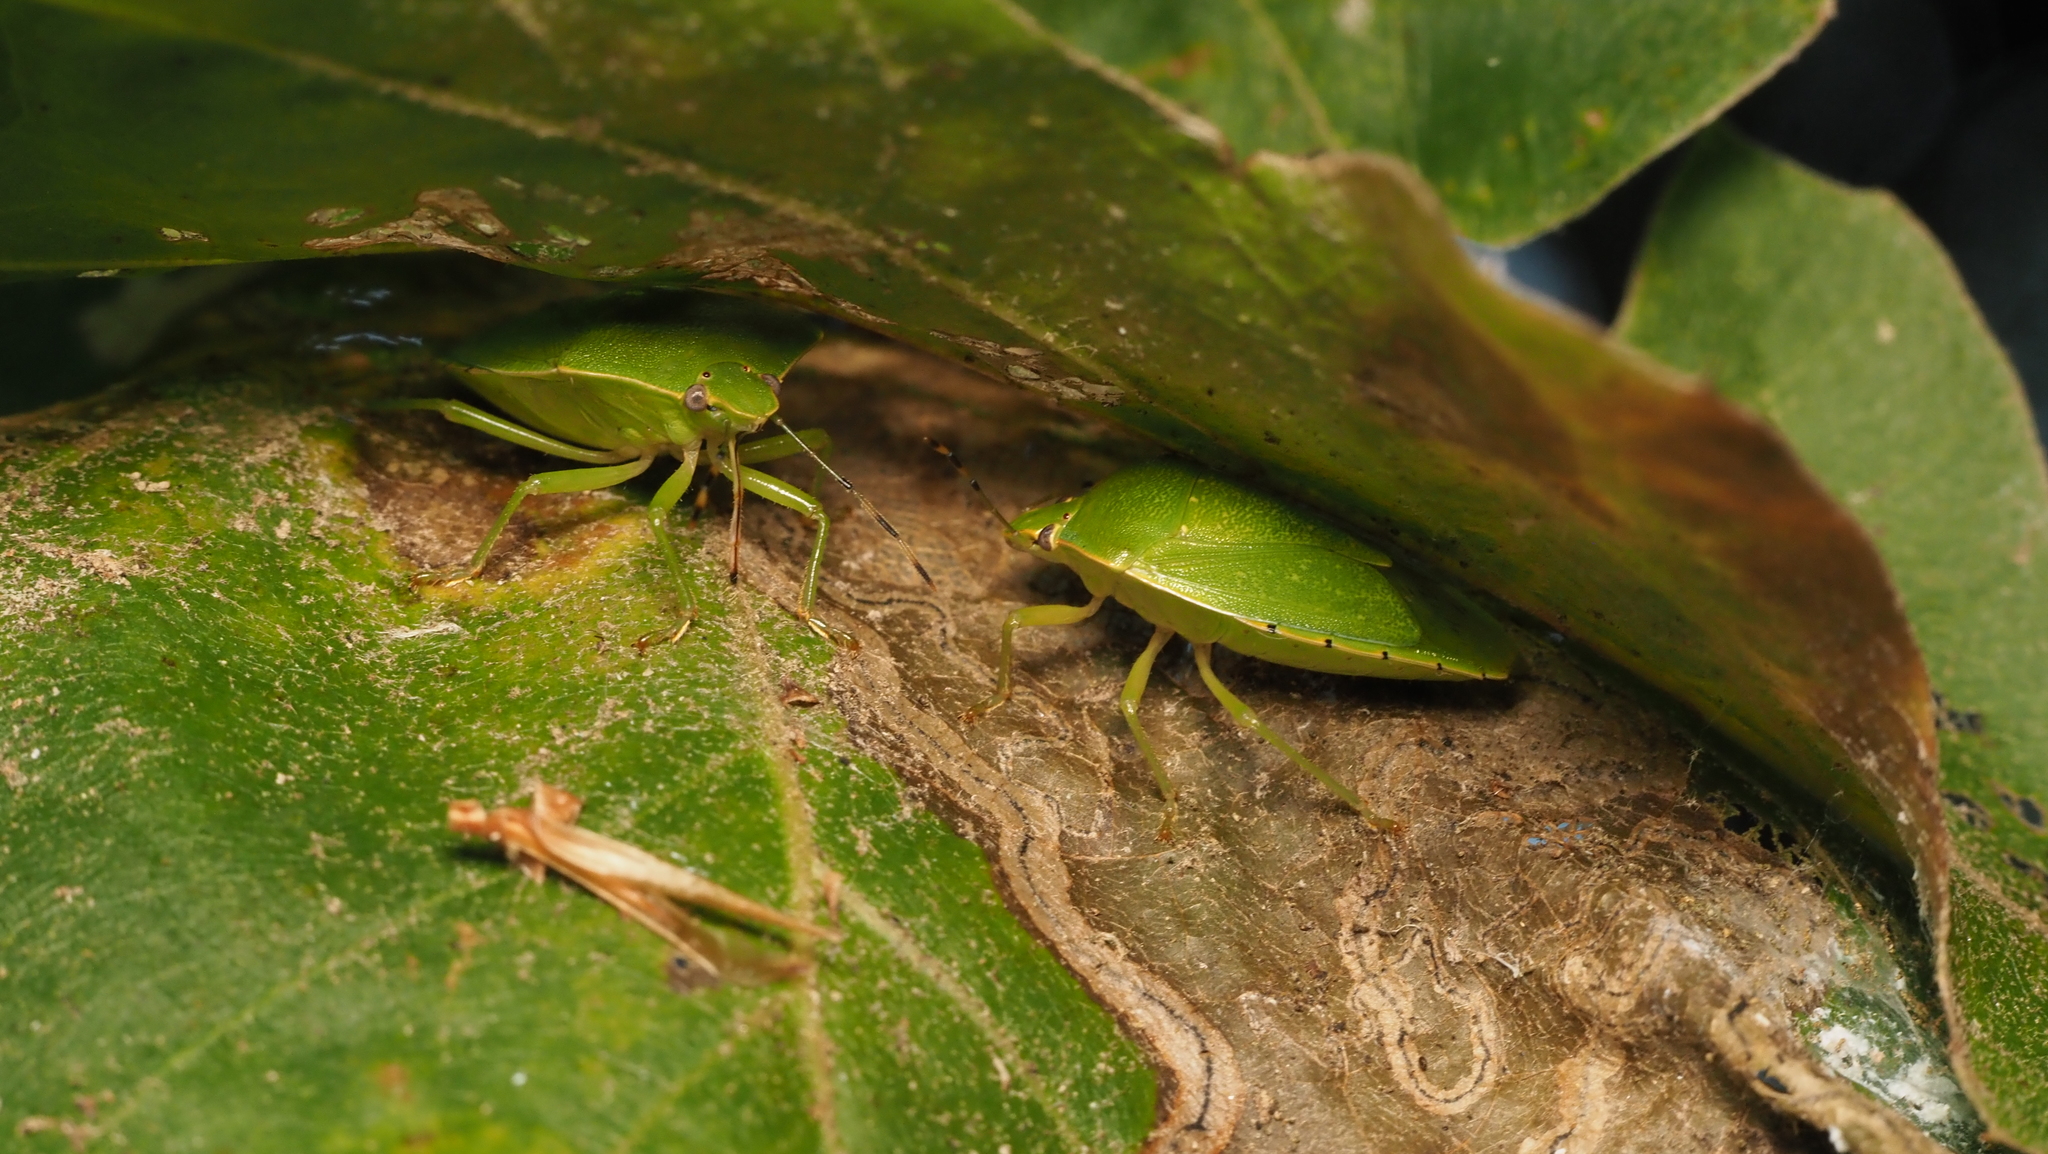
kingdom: Animalia
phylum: Arthropoda
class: Insecta
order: Hemiptera
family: Pentatomidae
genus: Chinavia
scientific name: Chinavia hilaris
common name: Green stink bug
